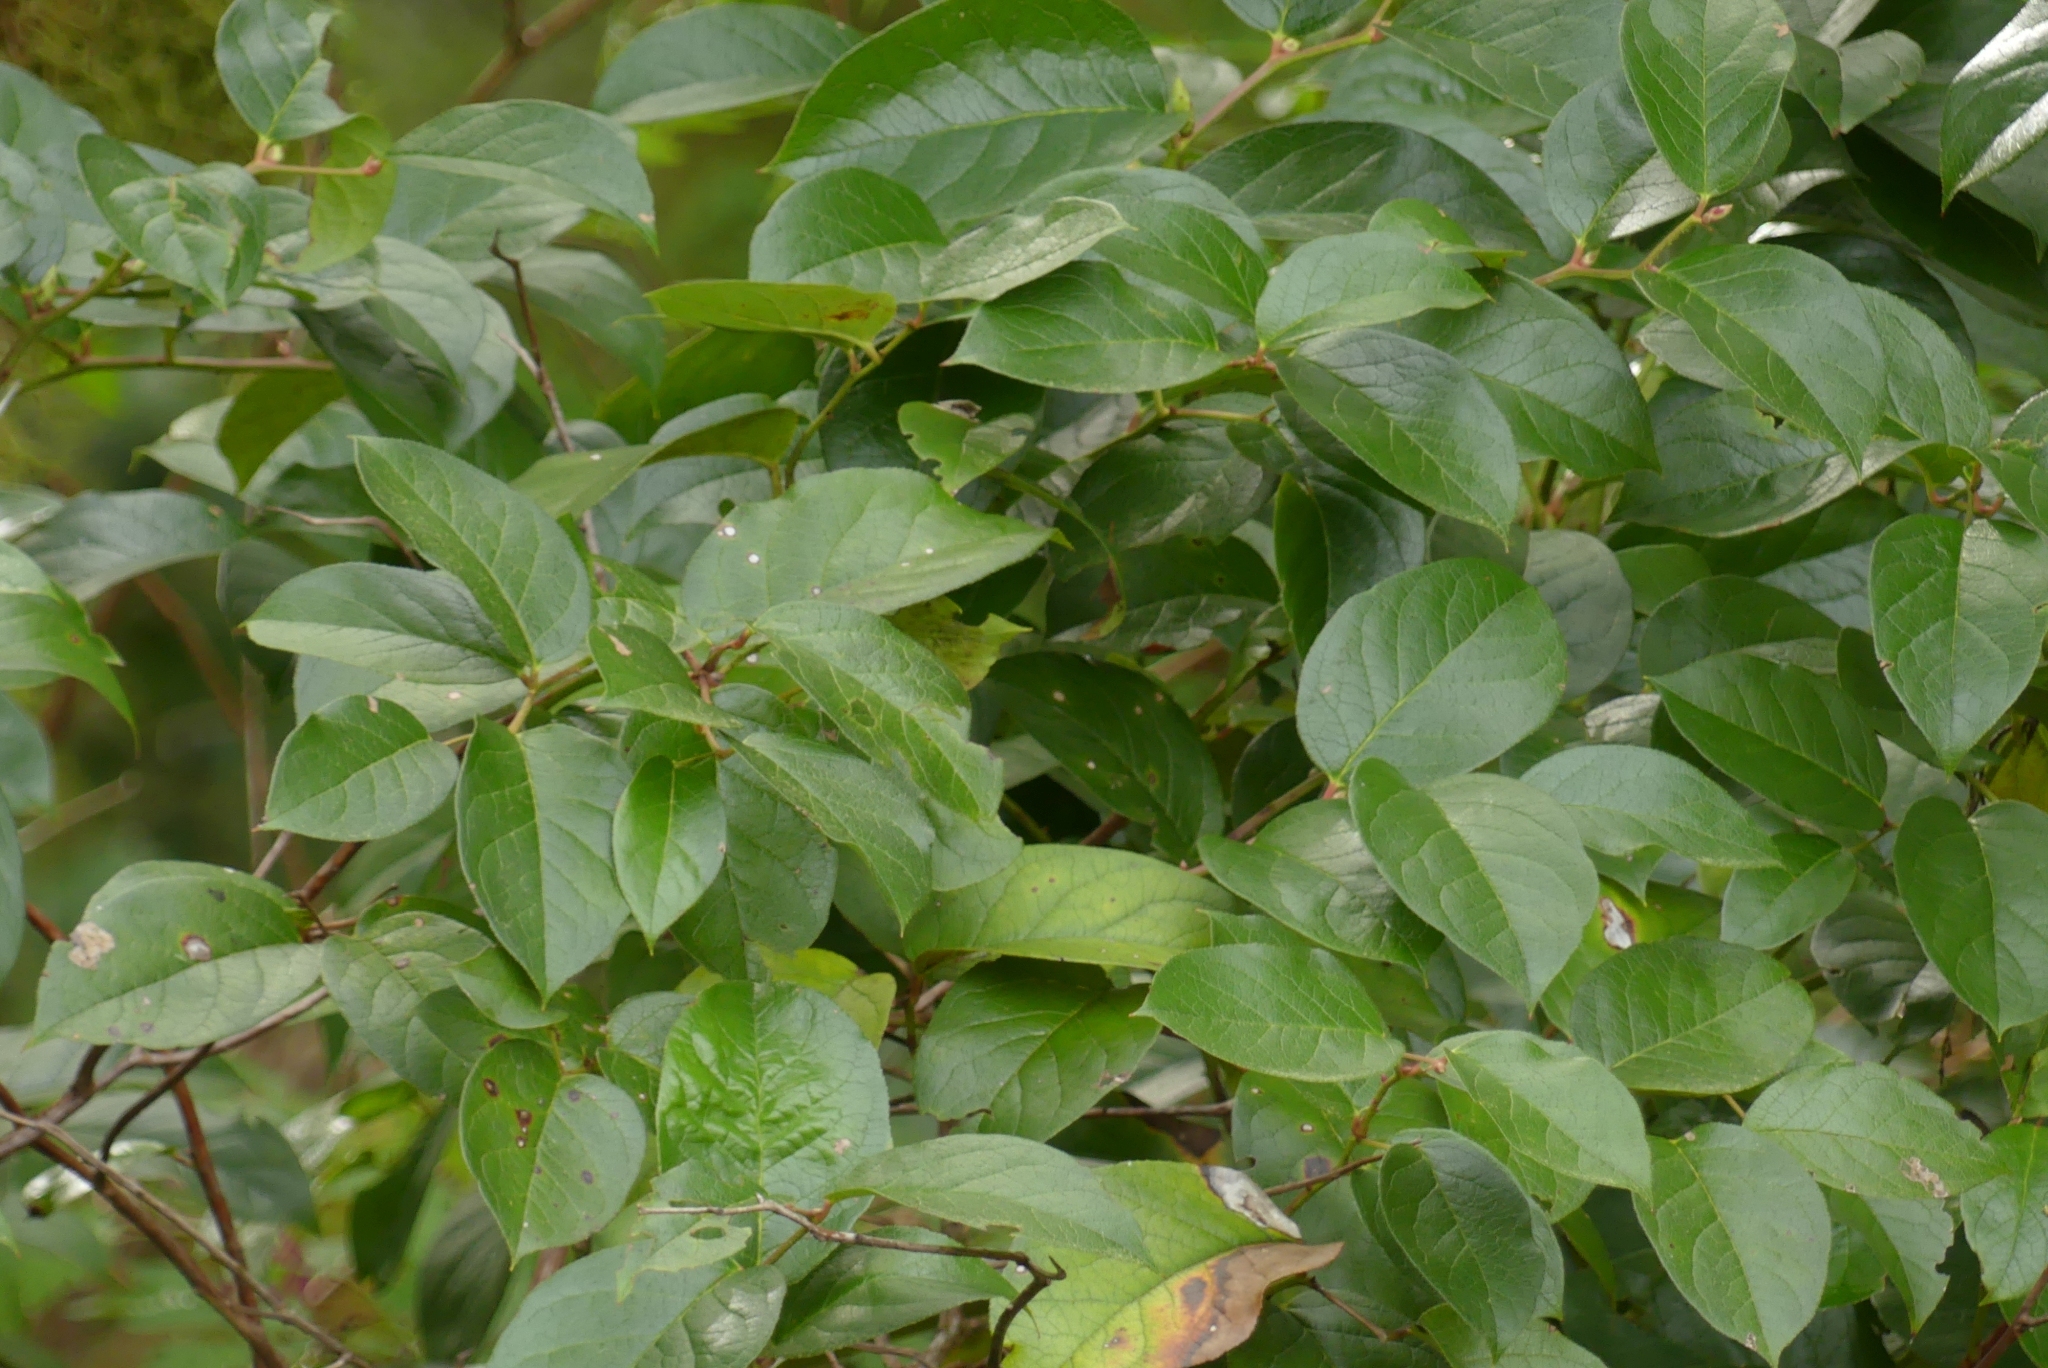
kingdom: Plantae
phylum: Tracheophyta
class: Magnoliopsida
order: Ericales
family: Ericaceae
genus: Gaultheria
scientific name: Gaultheria shallon
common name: Shallon
